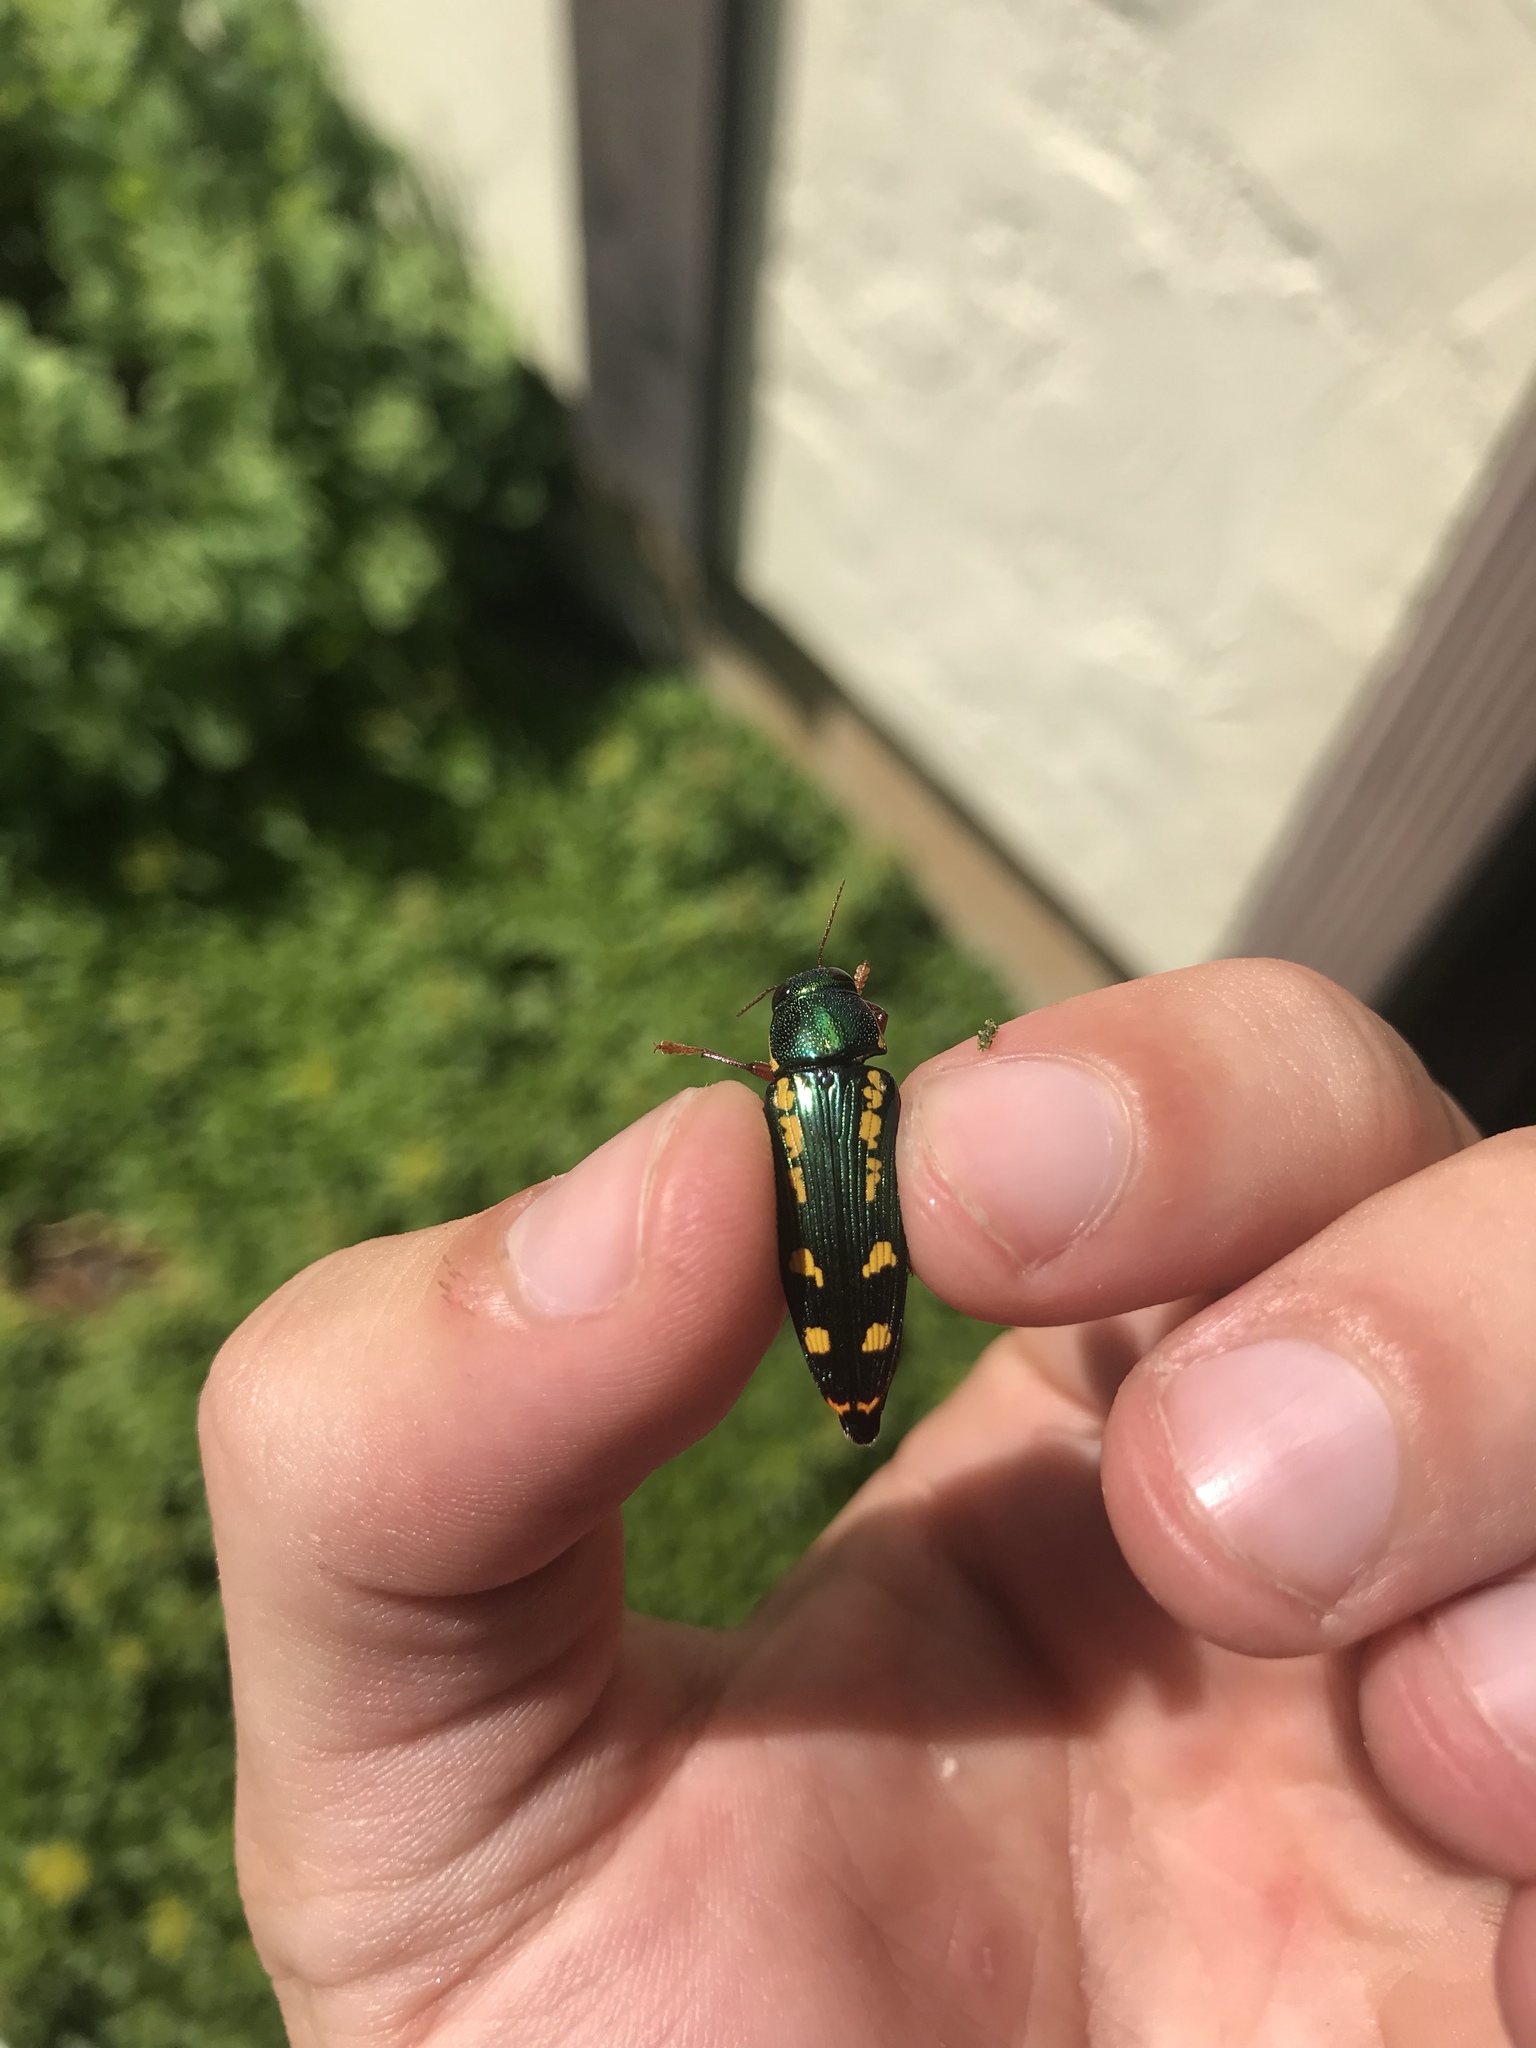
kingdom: Animalia
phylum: Arthropoda
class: Insecta
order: Coleoptera
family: Buprestidae
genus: Buprestis
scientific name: Buprestis rufipes
